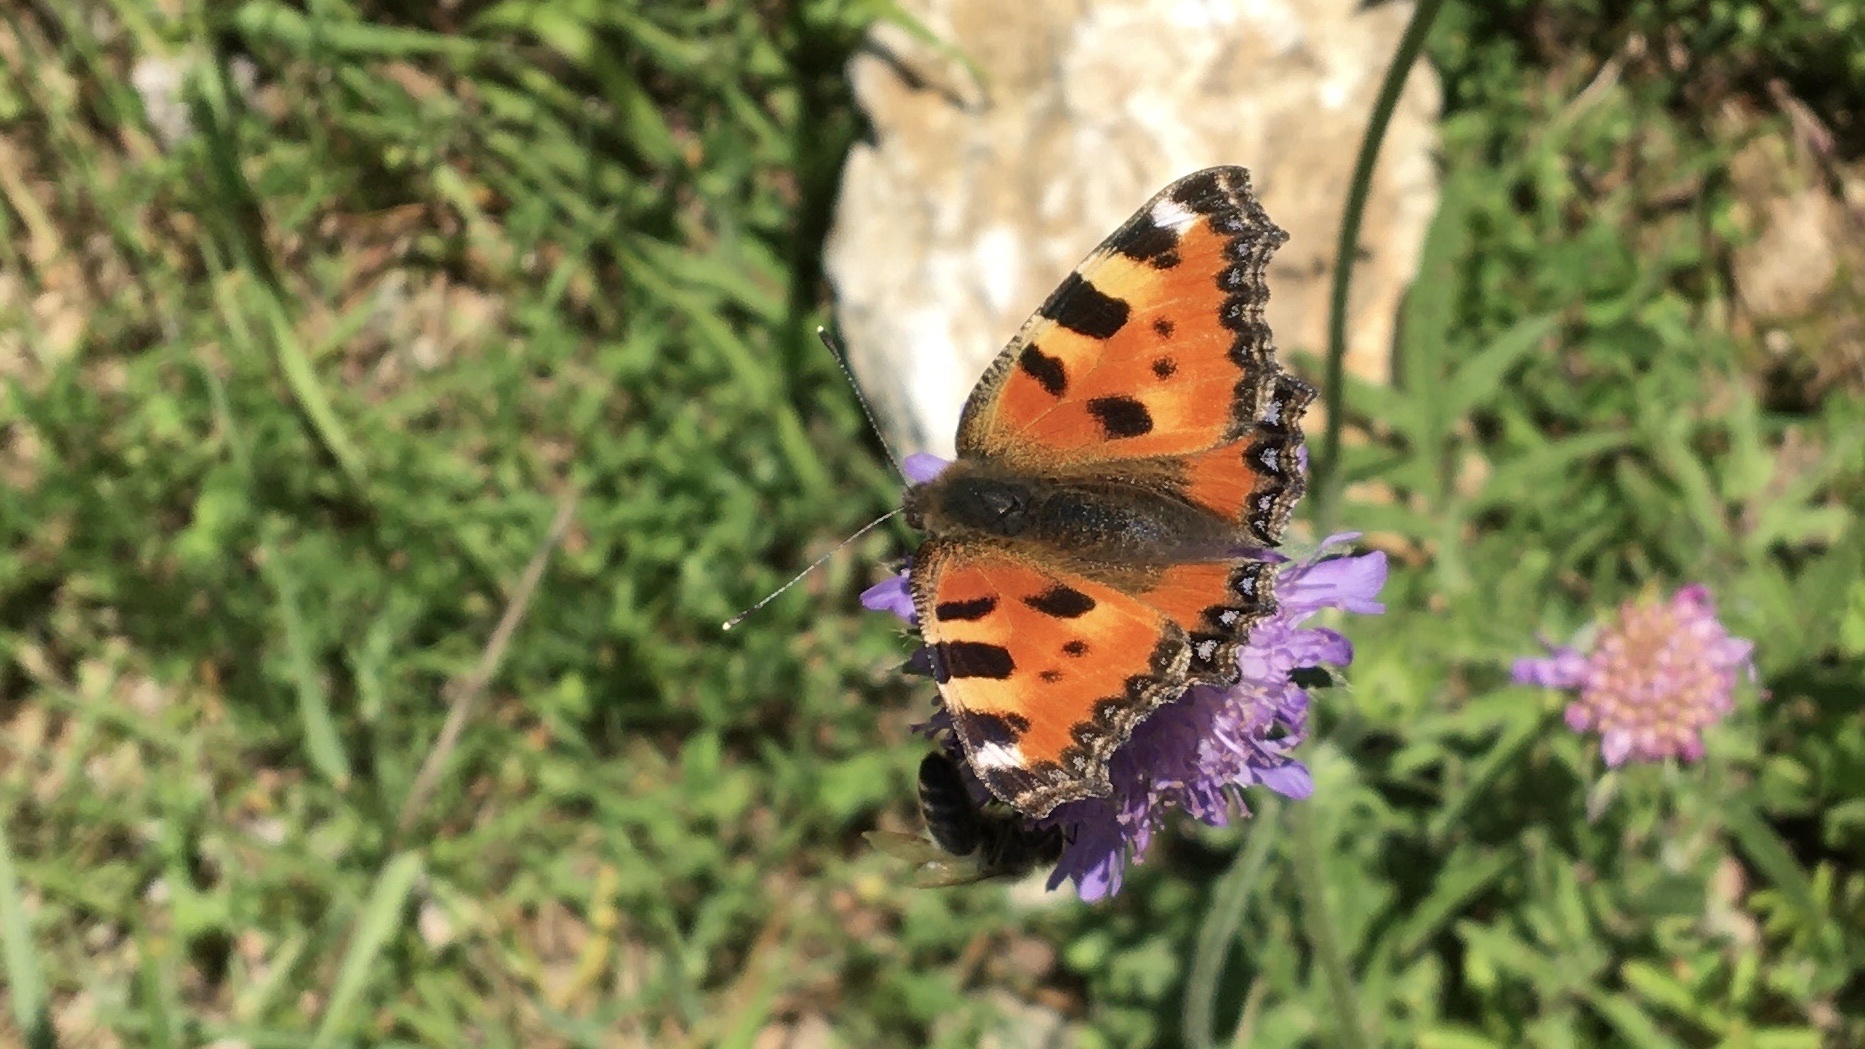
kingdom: Animalia
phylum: Arthropoda
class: Insecta
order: Lepidoptera
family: Nymphalidae
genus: Aglais
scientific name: Aglais urticae
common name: Small tortoiseshell
